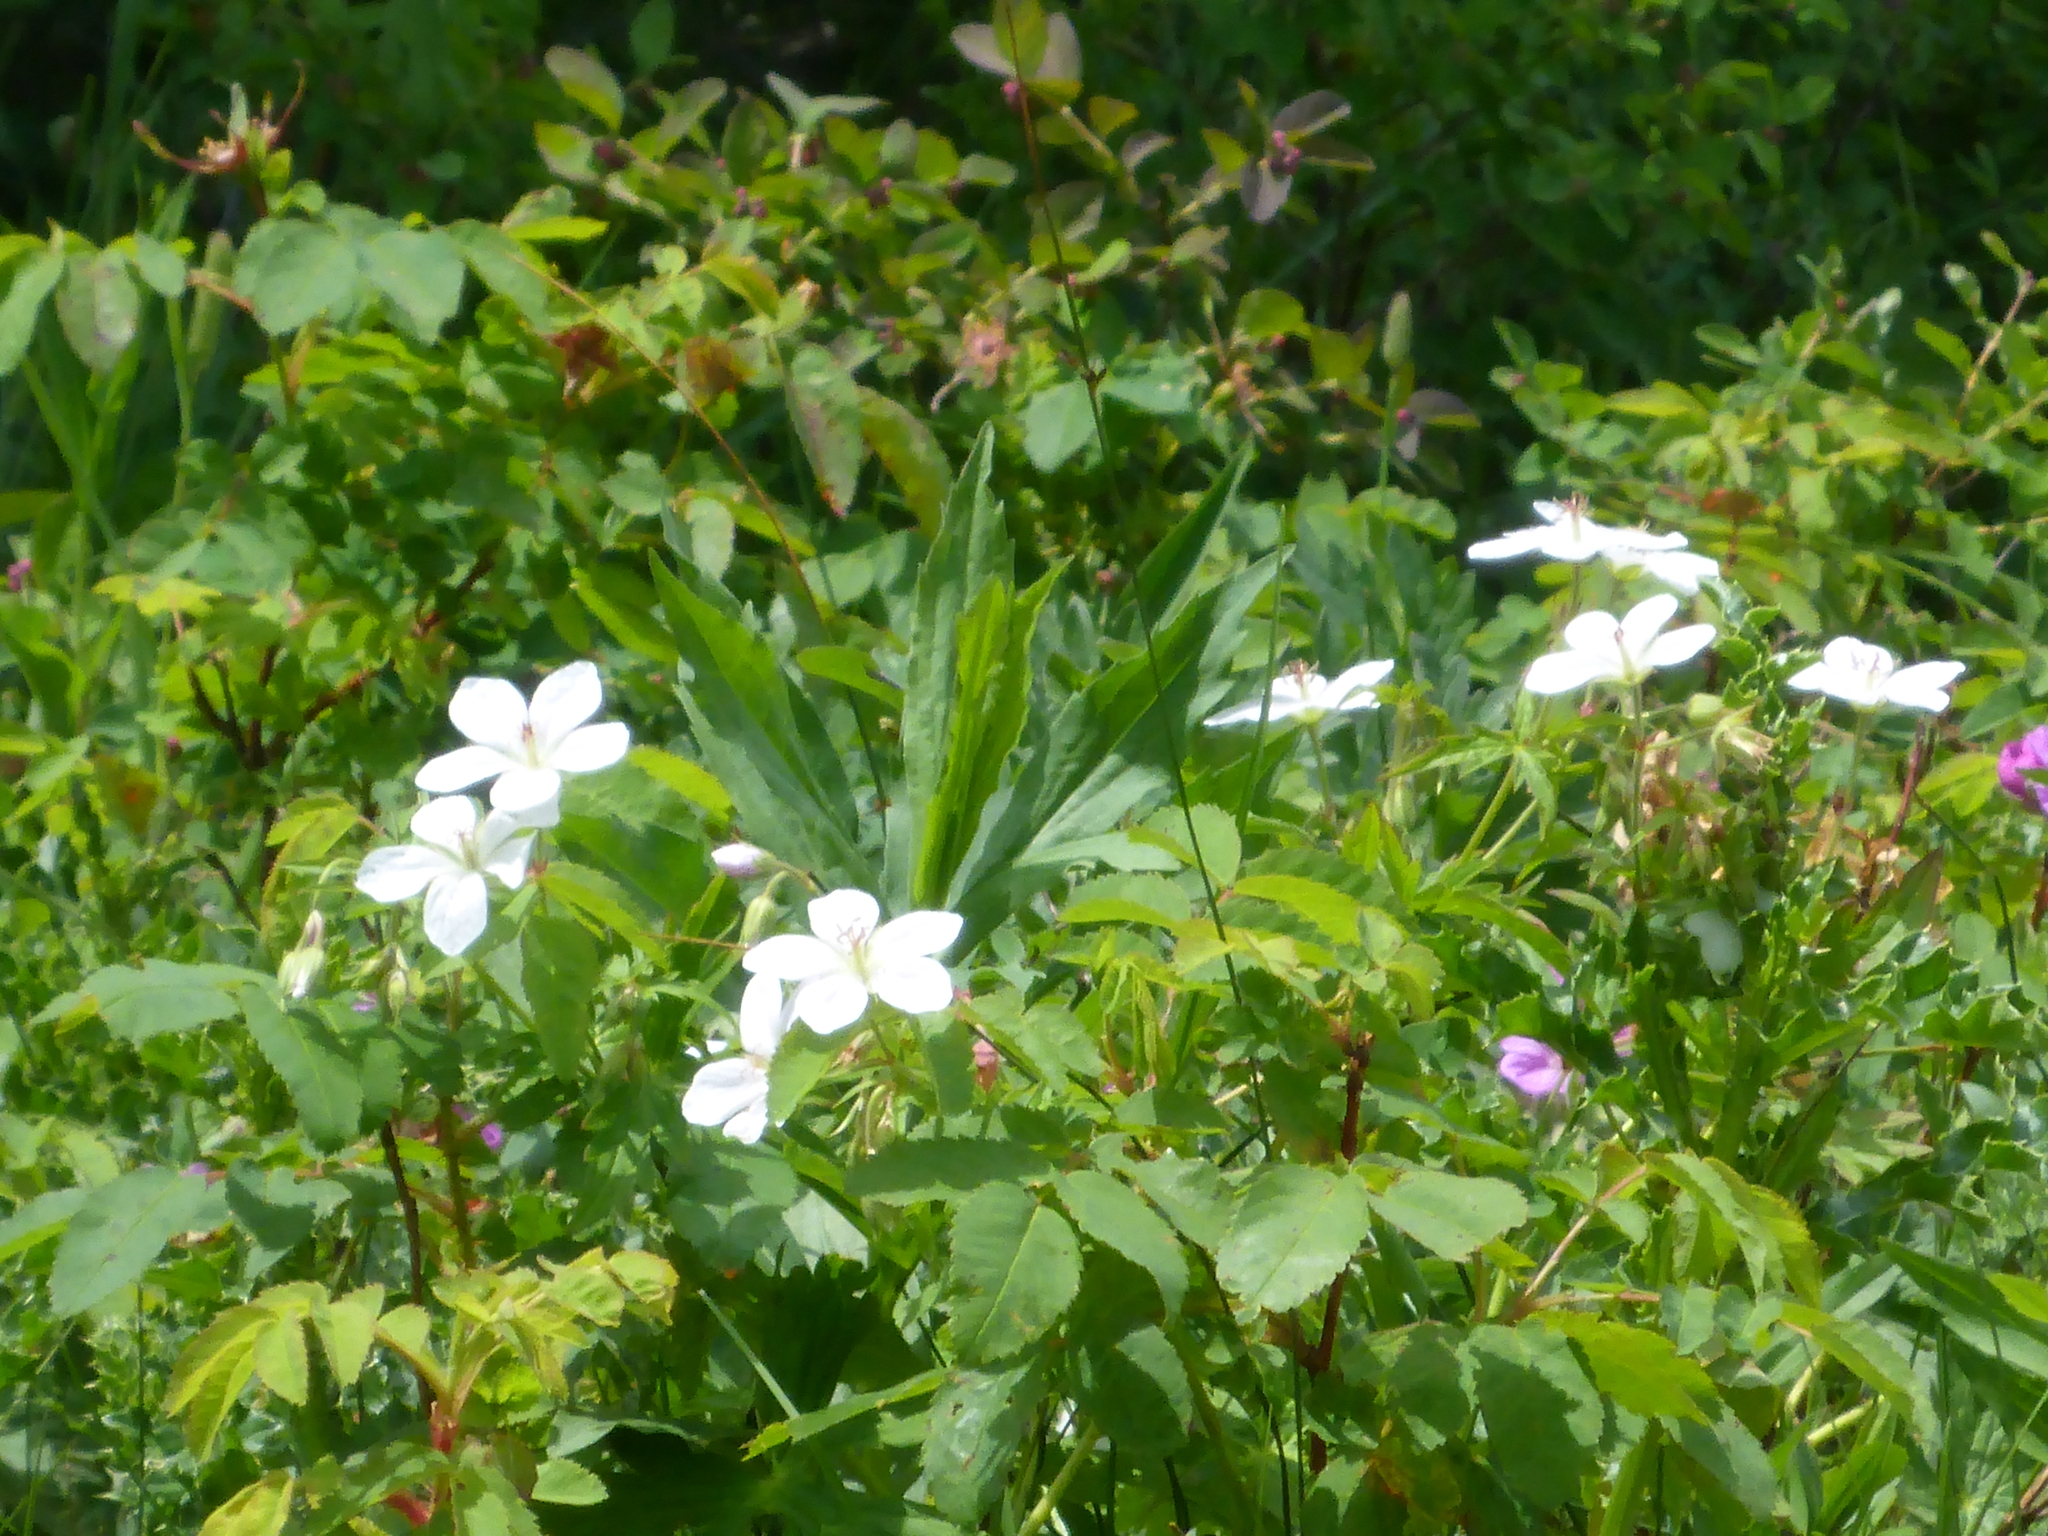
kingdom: Plantae
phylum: Tracheophyta
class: Magnoliopsida
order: Geraniales
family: Geraniaceae
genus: Geranium
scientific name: Geranium richardsonii
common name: Richardson's crane's-bill
